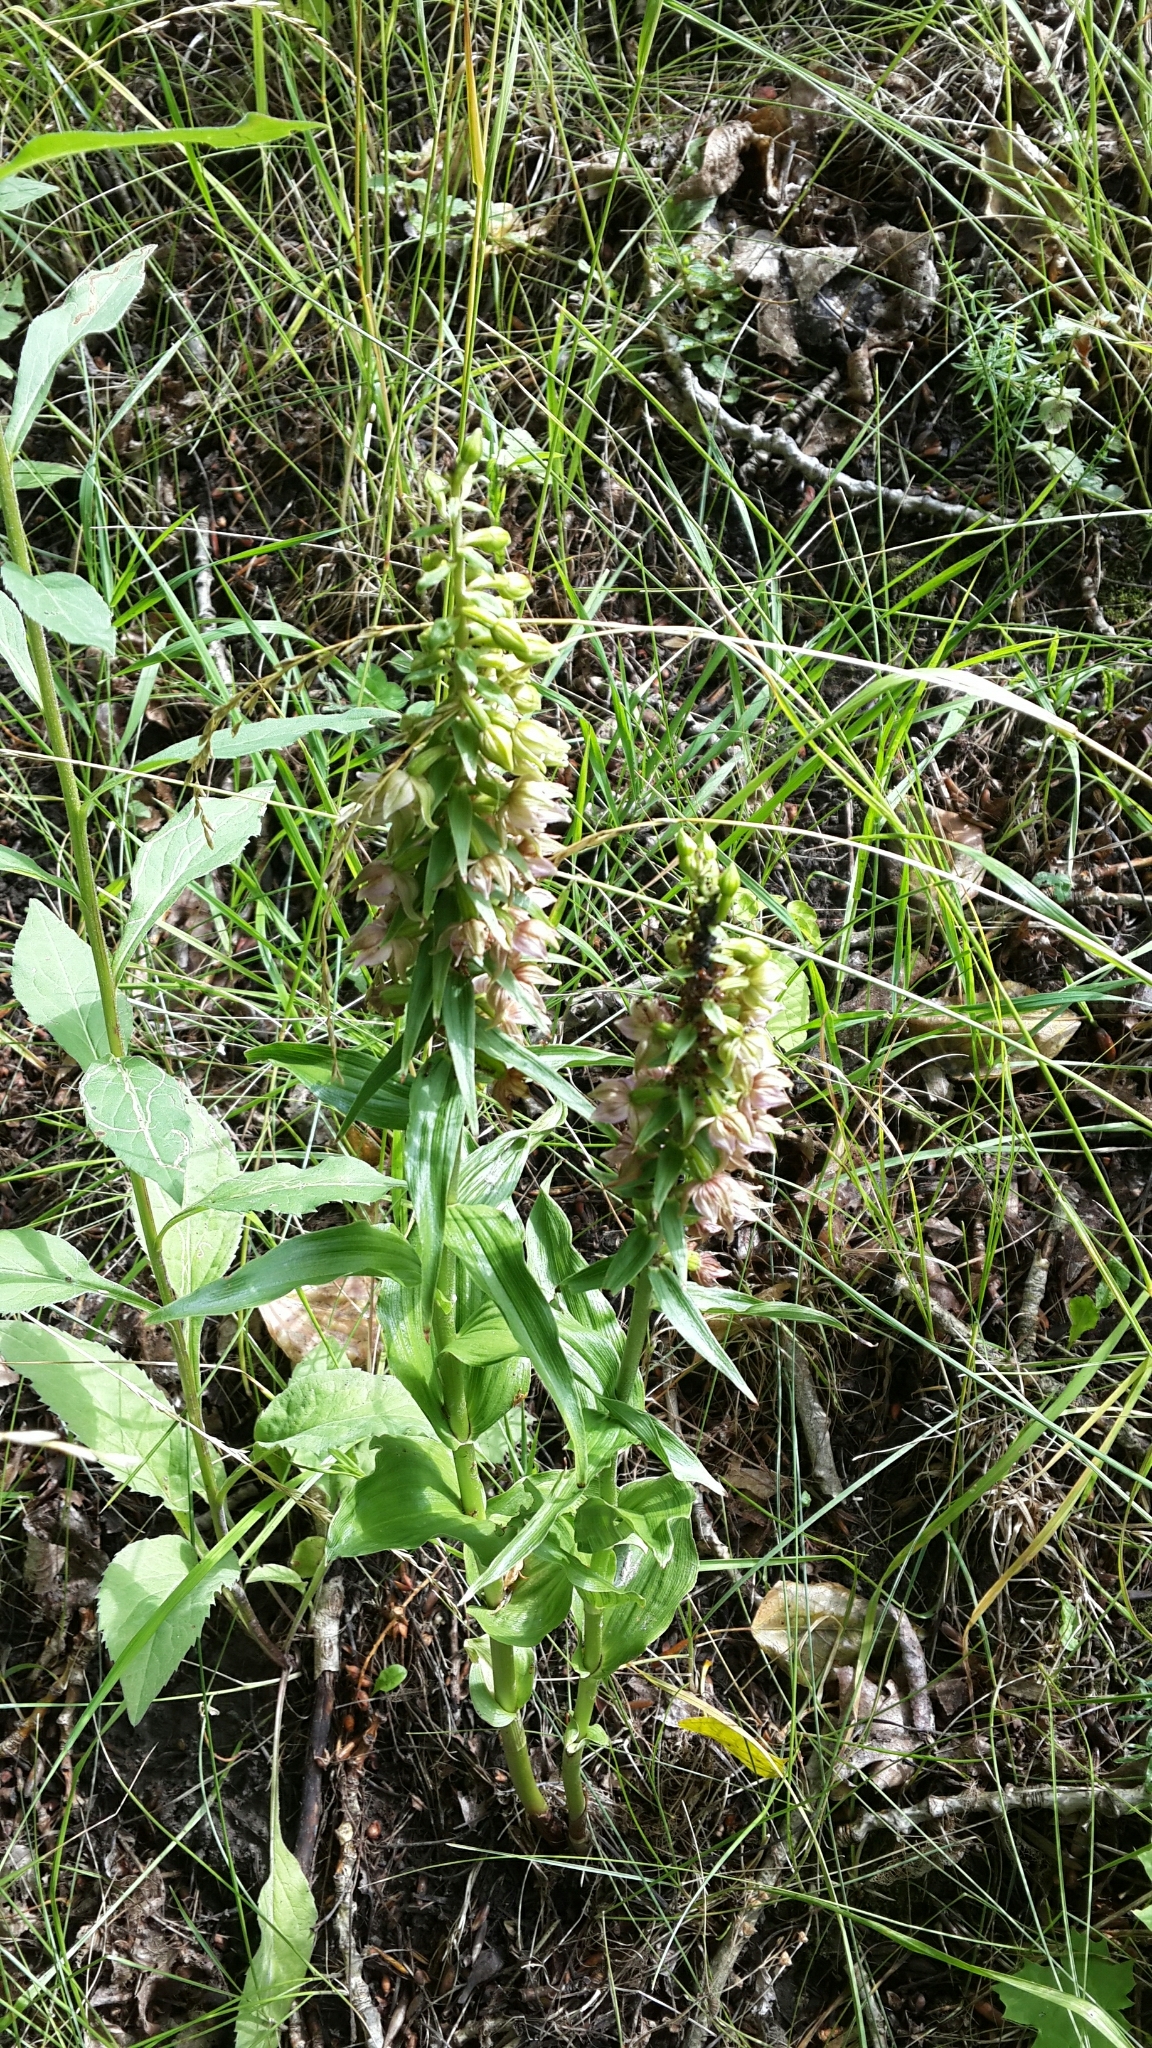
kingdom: Plantae
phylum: Tracheophyta
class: Liliopsida
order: Asparagales
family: Orchidaceae
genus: Epipactis
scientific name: Epipactis helleborine
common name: Broad-leaved helleborine
